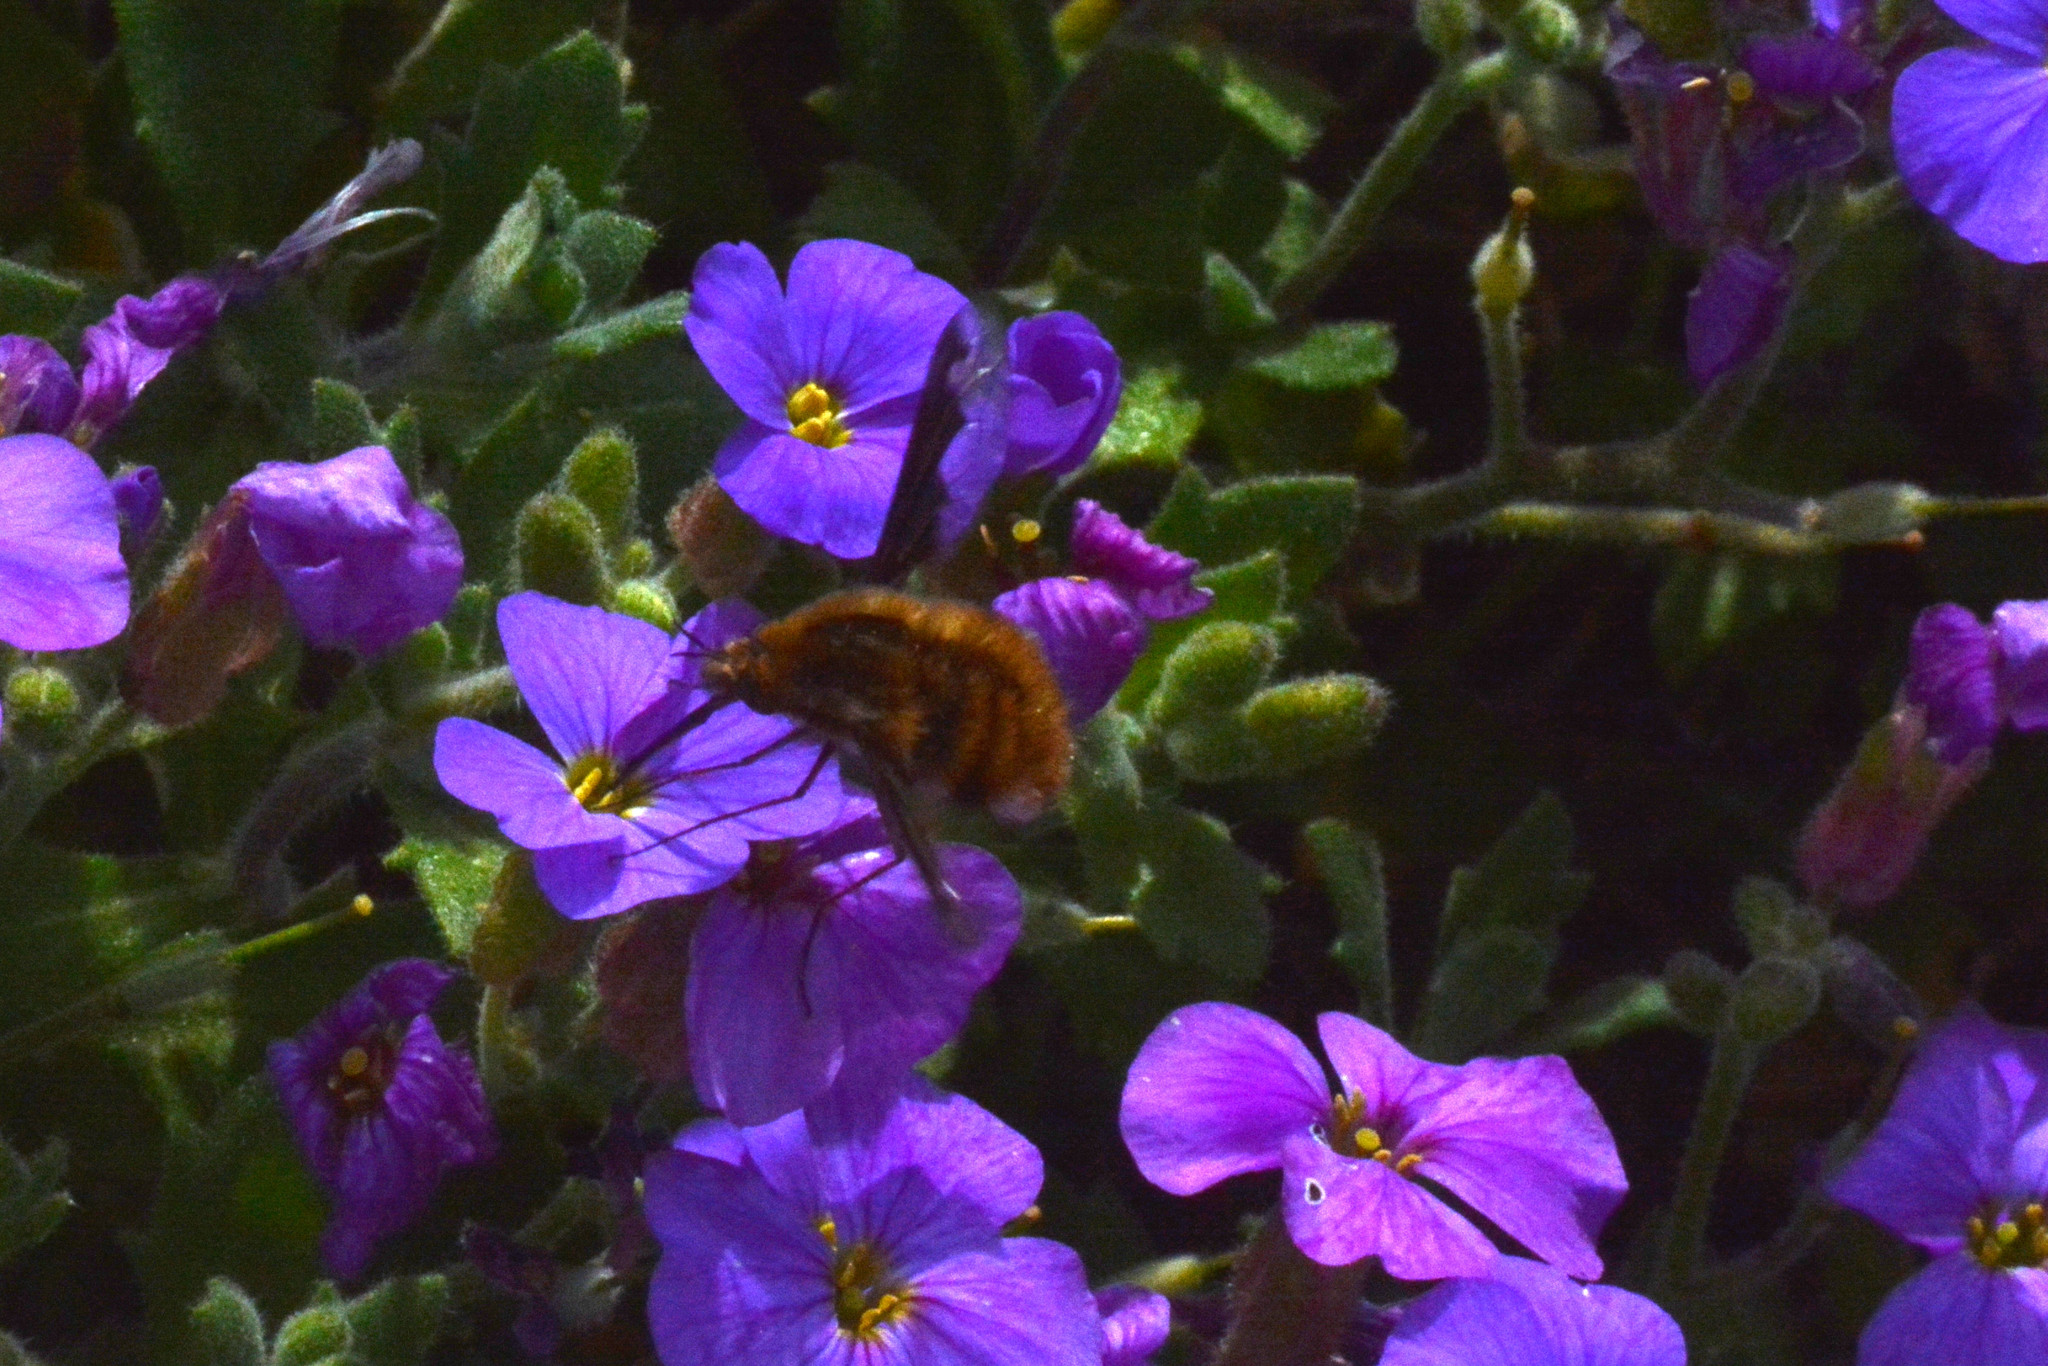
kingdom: Animalia
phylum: Arthropoda
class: Insecta
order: Diptera
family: Bombyliidae
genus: Bombylius
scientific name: Bombylius major
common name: Bee fly
